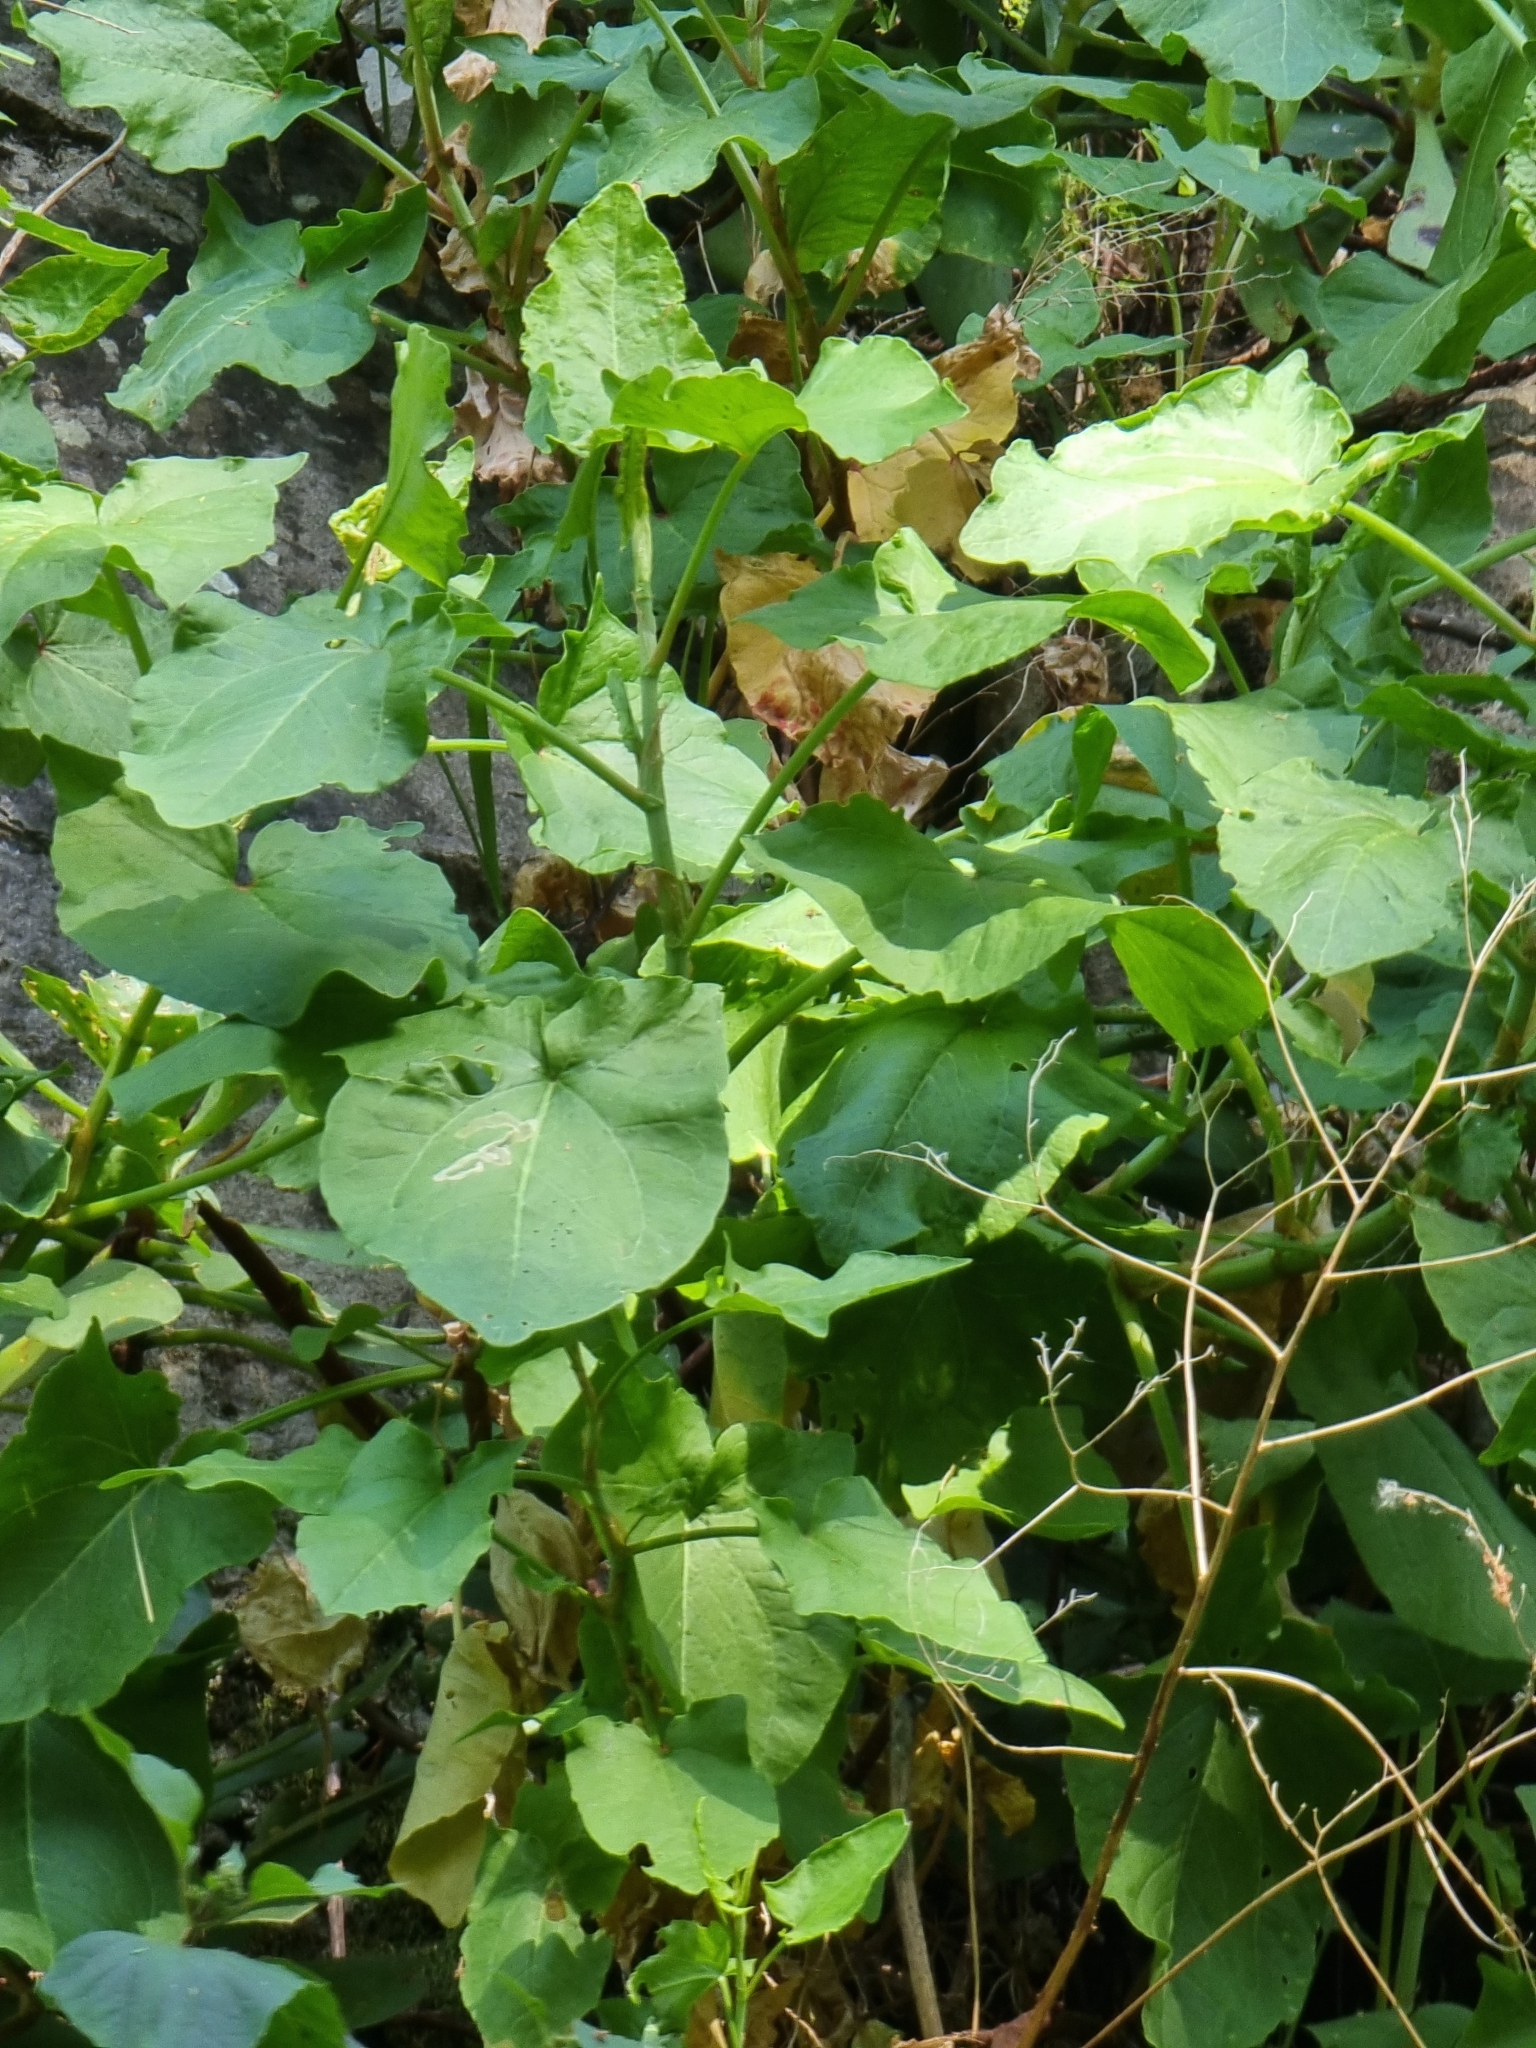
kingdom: Plantae
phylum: Tracheophyta
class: Magnoliopsida
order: Caryophyllales
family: Polygonaceae
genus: Rumex
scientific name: Rumex maderensis
